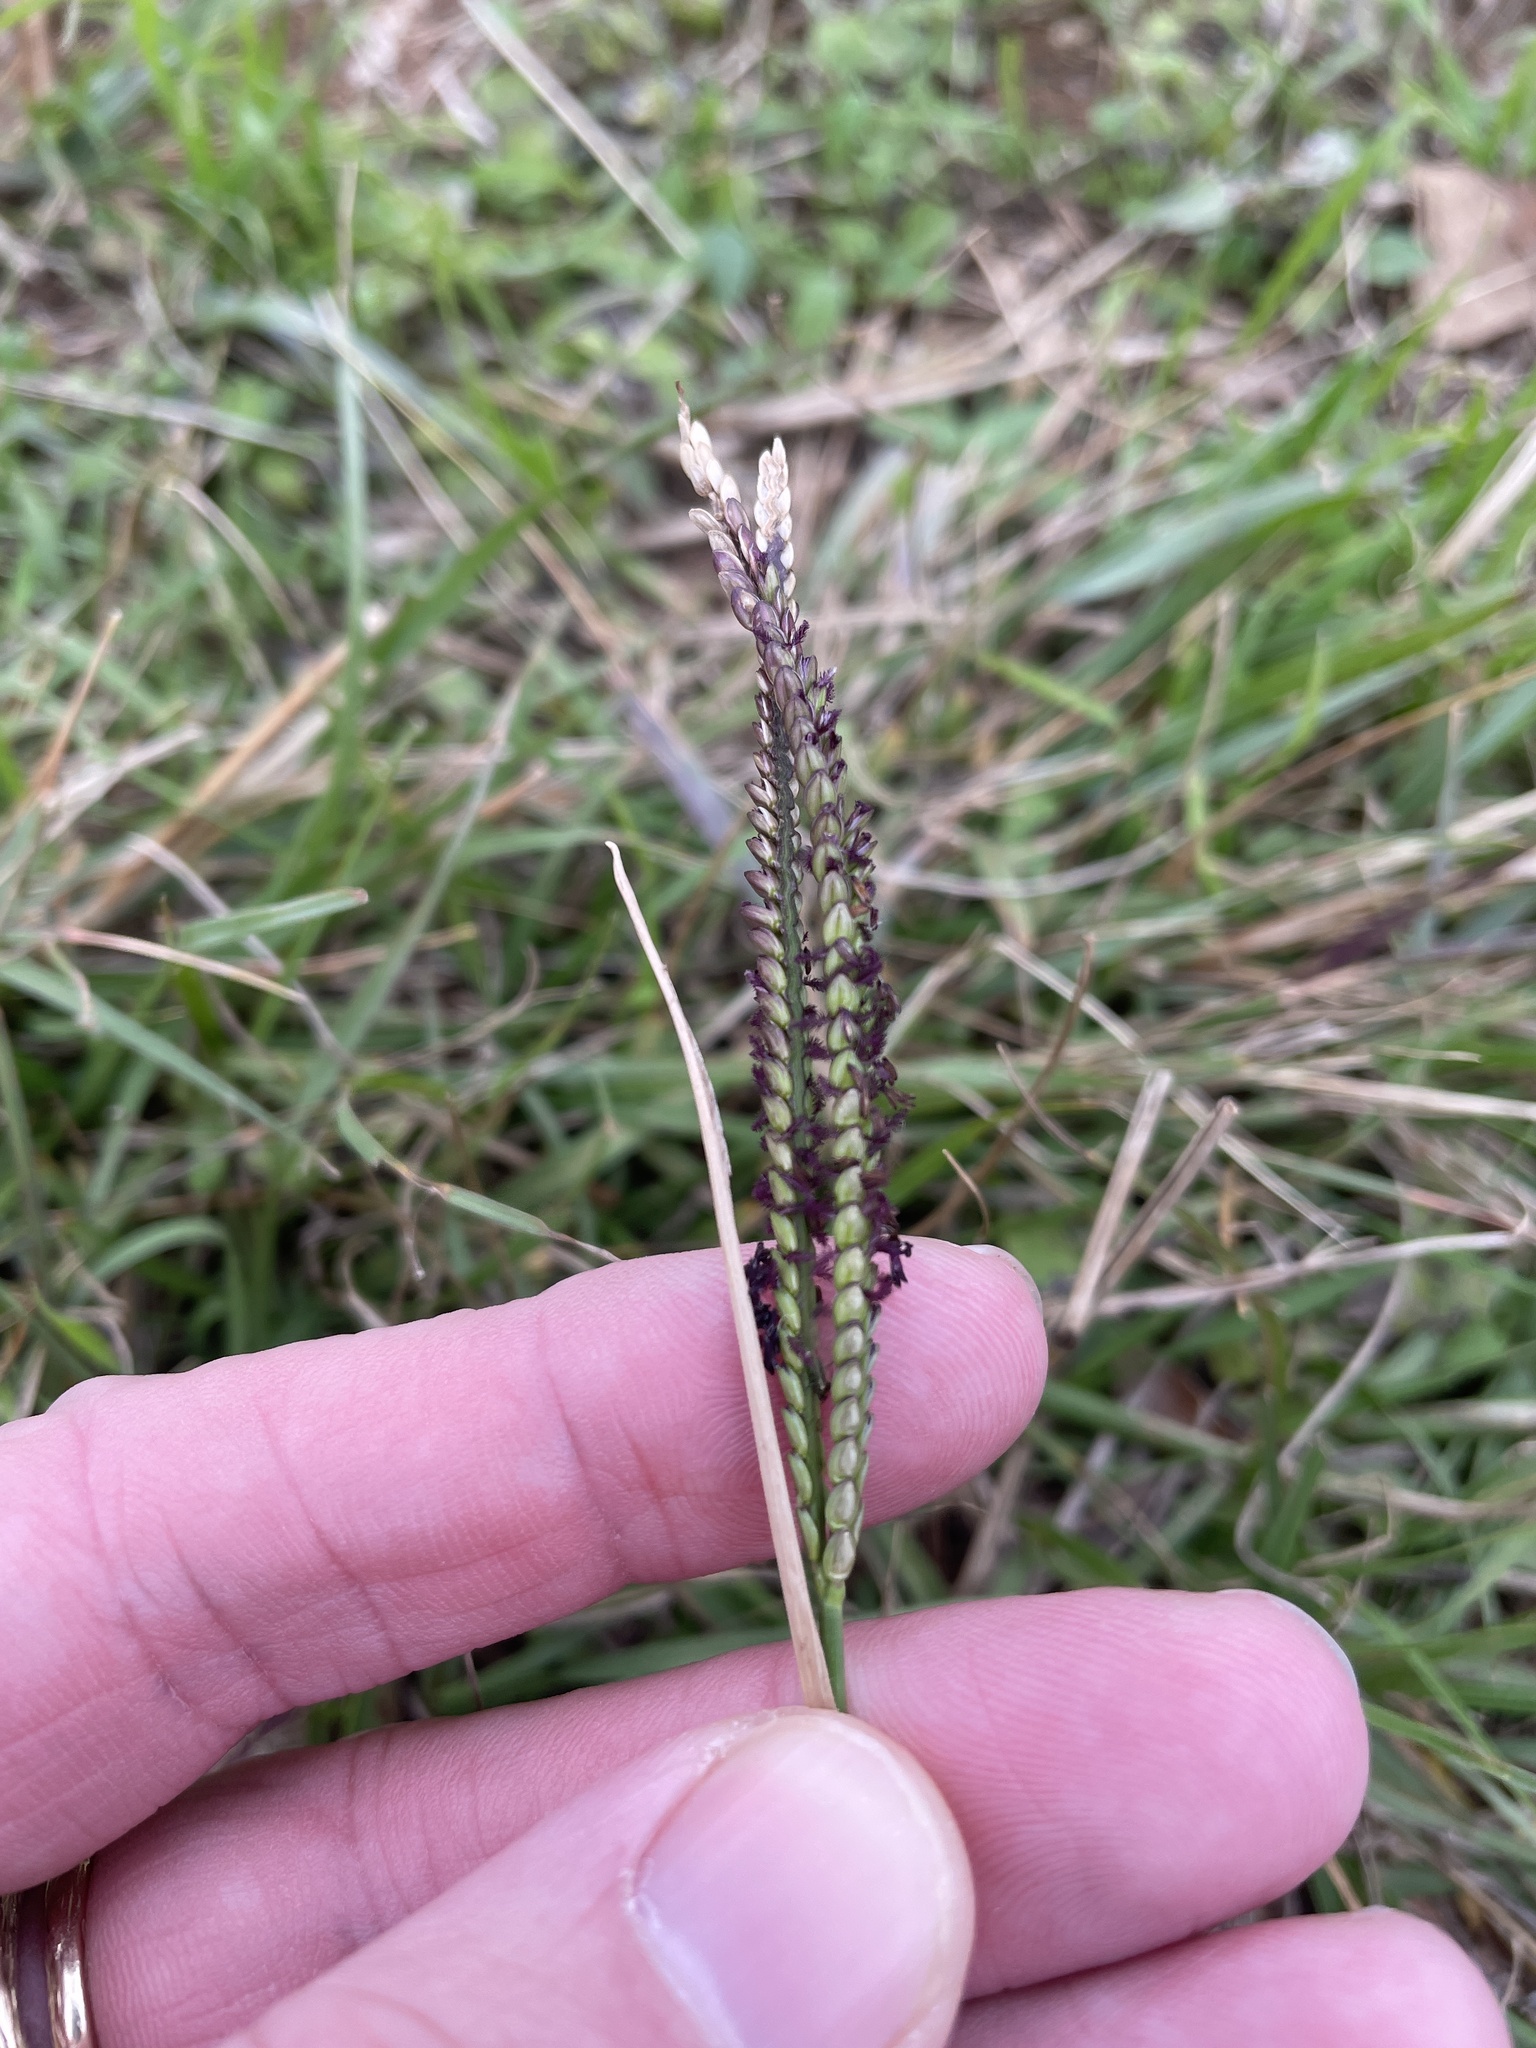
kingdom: Plantae
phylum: Tracheophyta
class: Liliopsida
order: Poales
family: Poaceae
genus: Paspalum
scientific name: Paspalum notatum
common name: Bahiagrass
